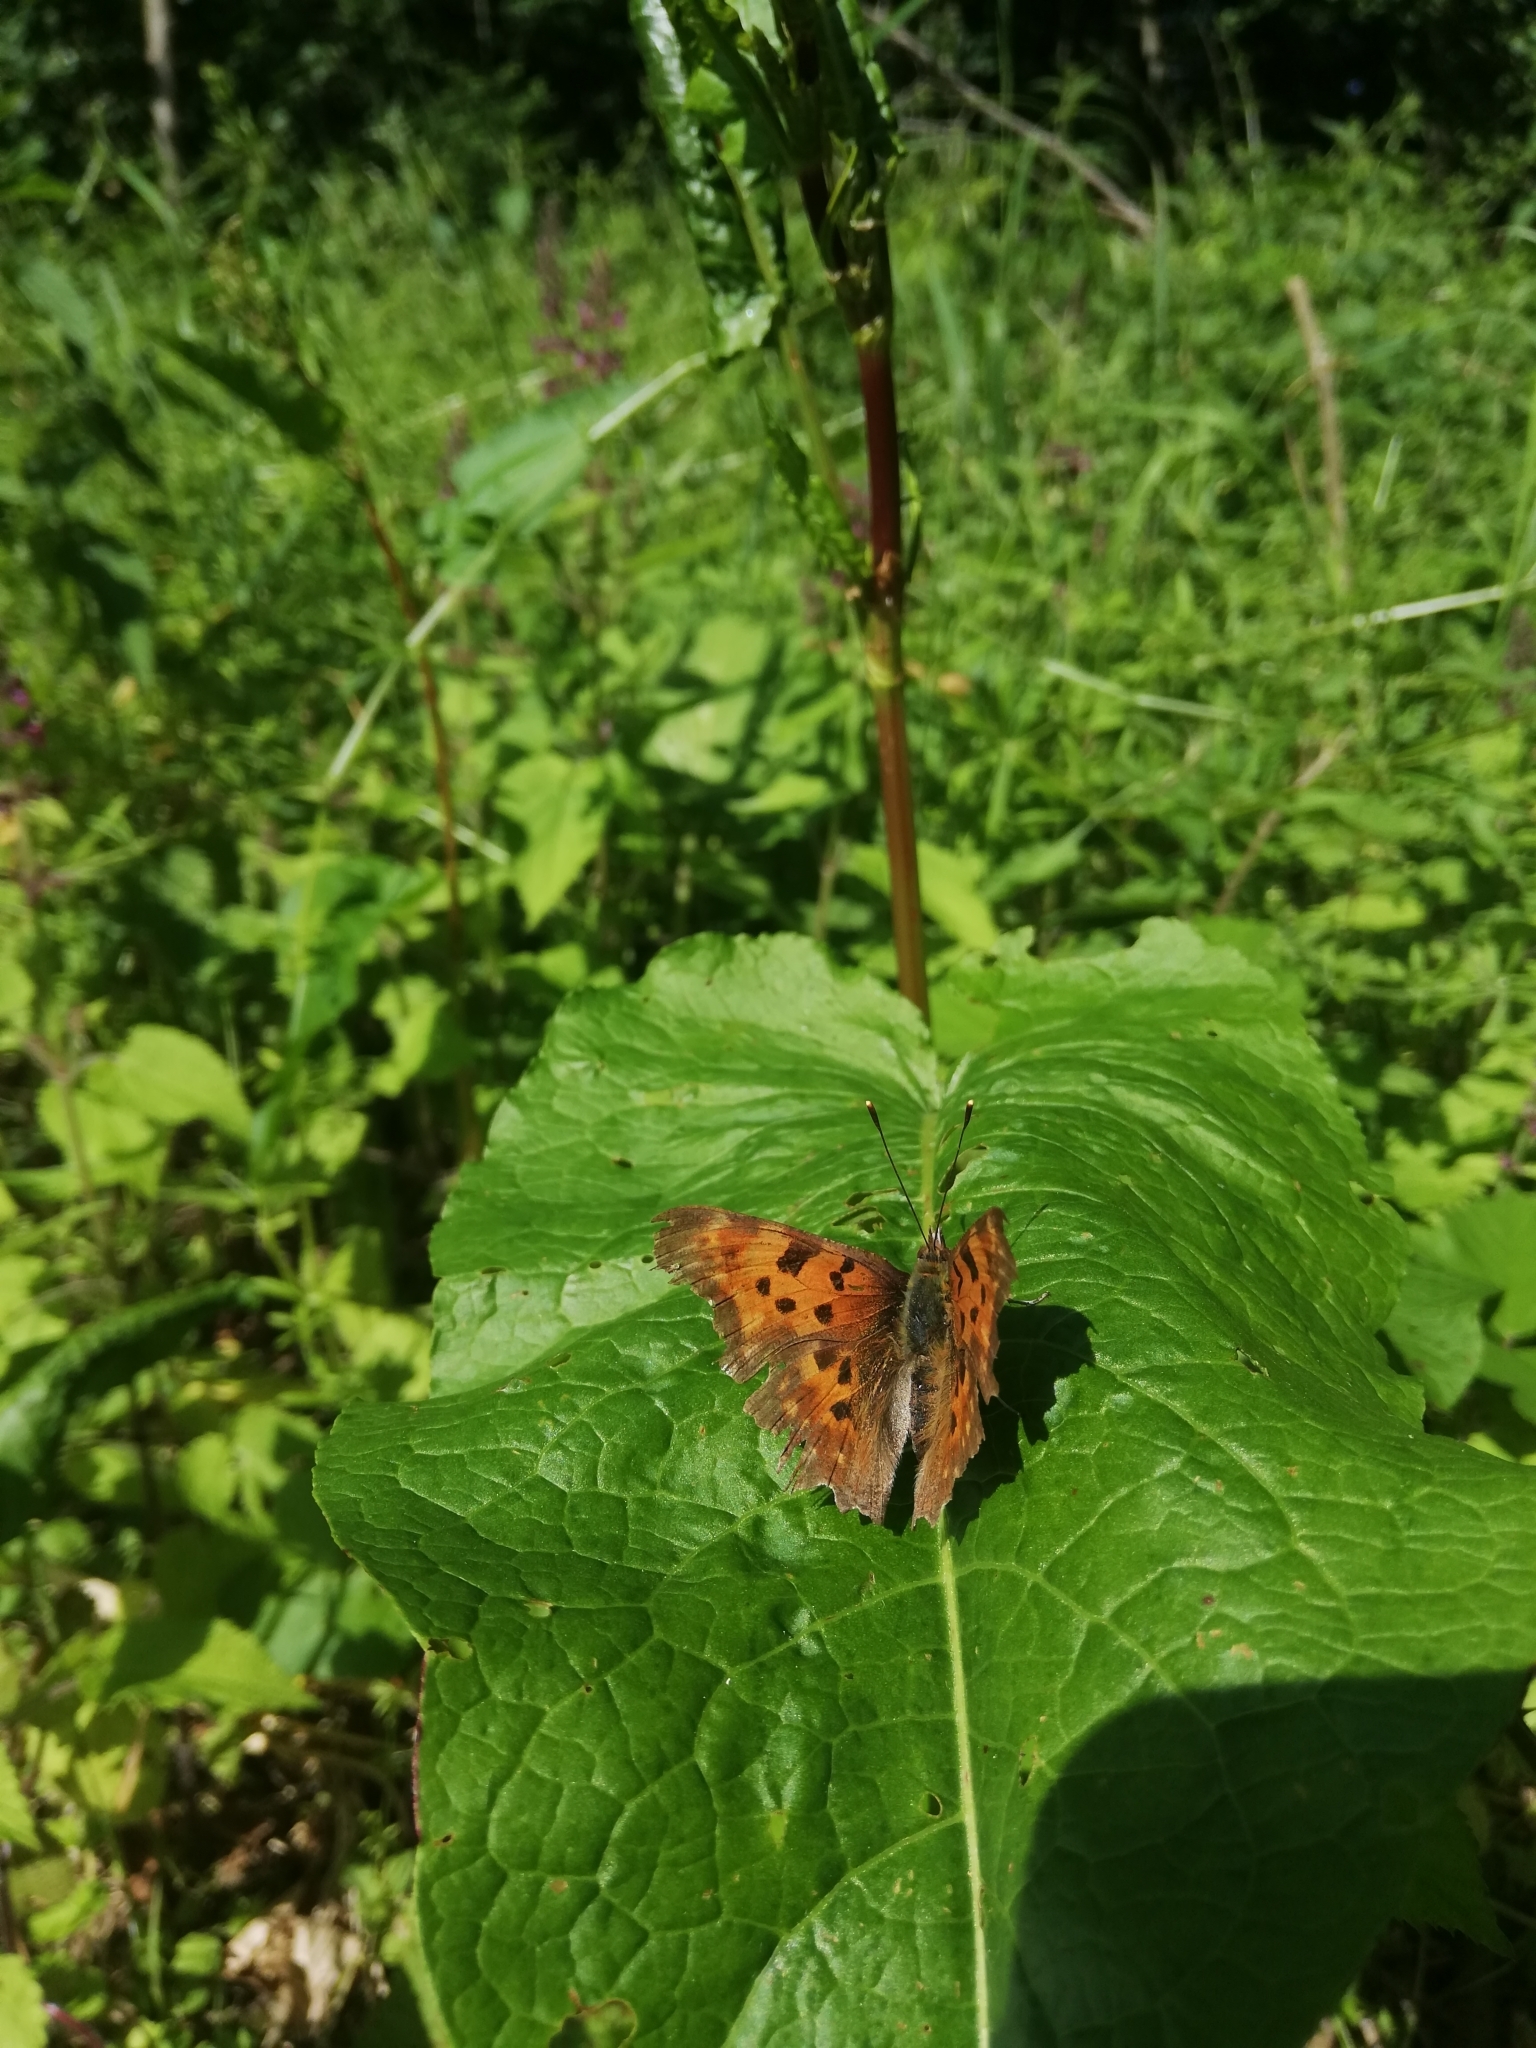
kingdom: Animalia
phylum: Arthropoda
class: Insecta
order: Lepidoptera
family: Nymphalidae
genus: Polygonia
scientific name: Polygonia c-album
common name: Comma
